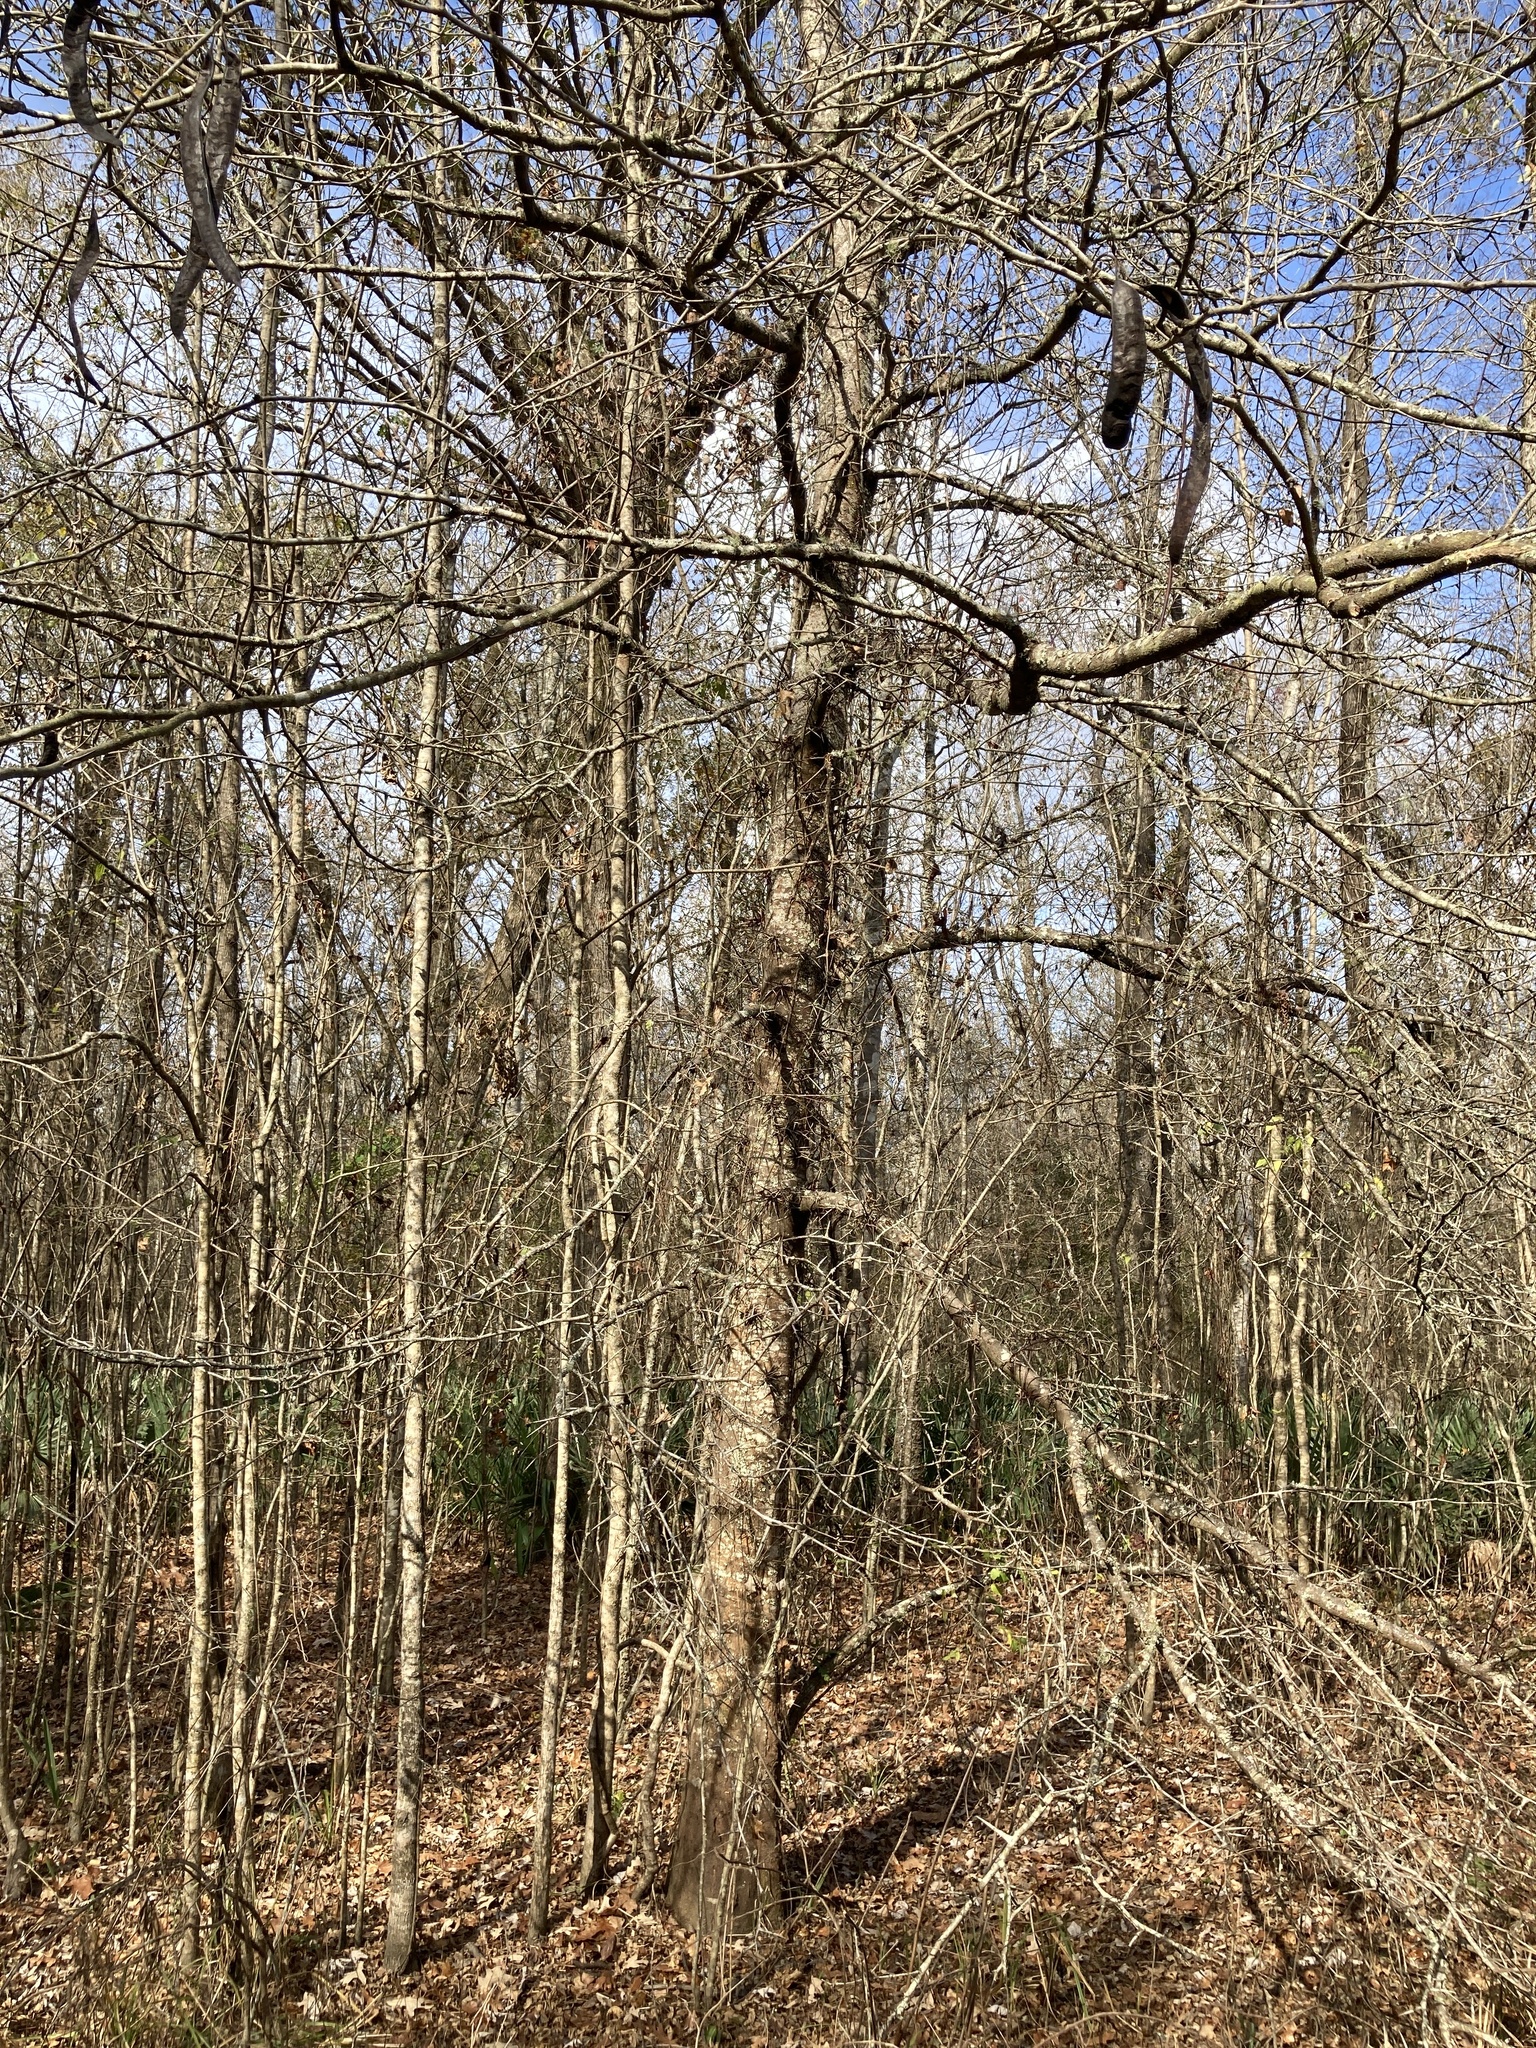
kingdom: Plantae
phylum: Tracheophyta
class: Magnoliopsida
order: Fabales
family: Fabaceae
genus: Gleditsia
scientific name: Gleditsia triacanthos
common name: Common honeylocust
